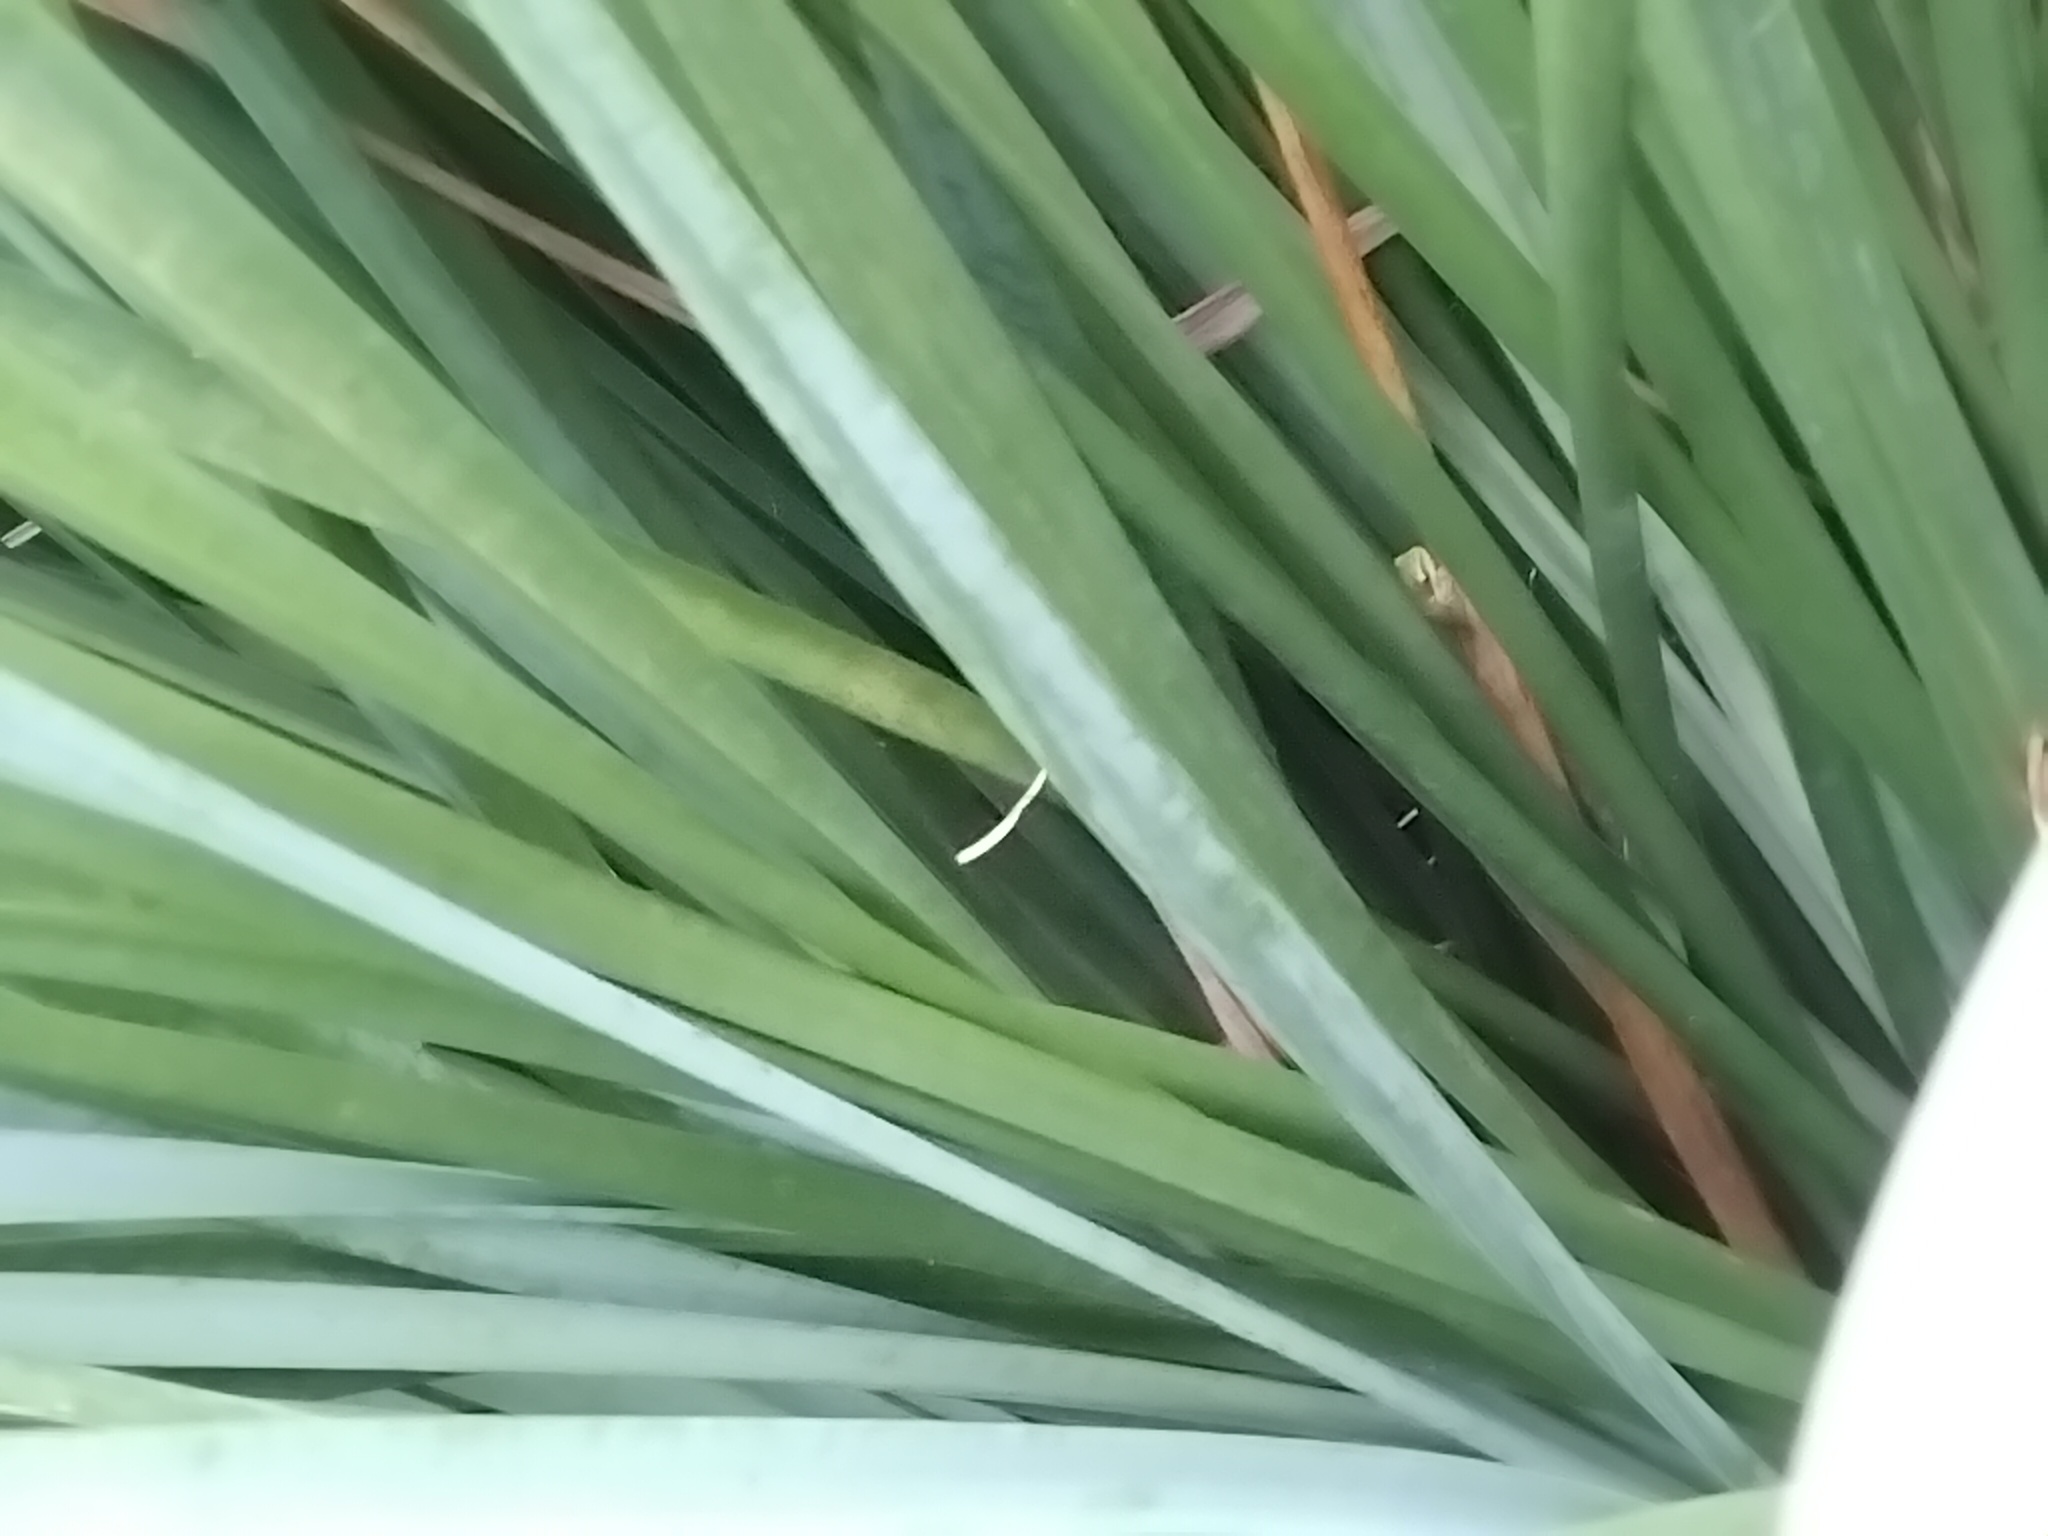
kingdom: Animalia
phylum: Chordata
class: Amphibia
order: Anura
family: Pelodryadidae
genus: Litoria
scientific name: Litoria fallax
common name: Eastern dwarf treefrog
